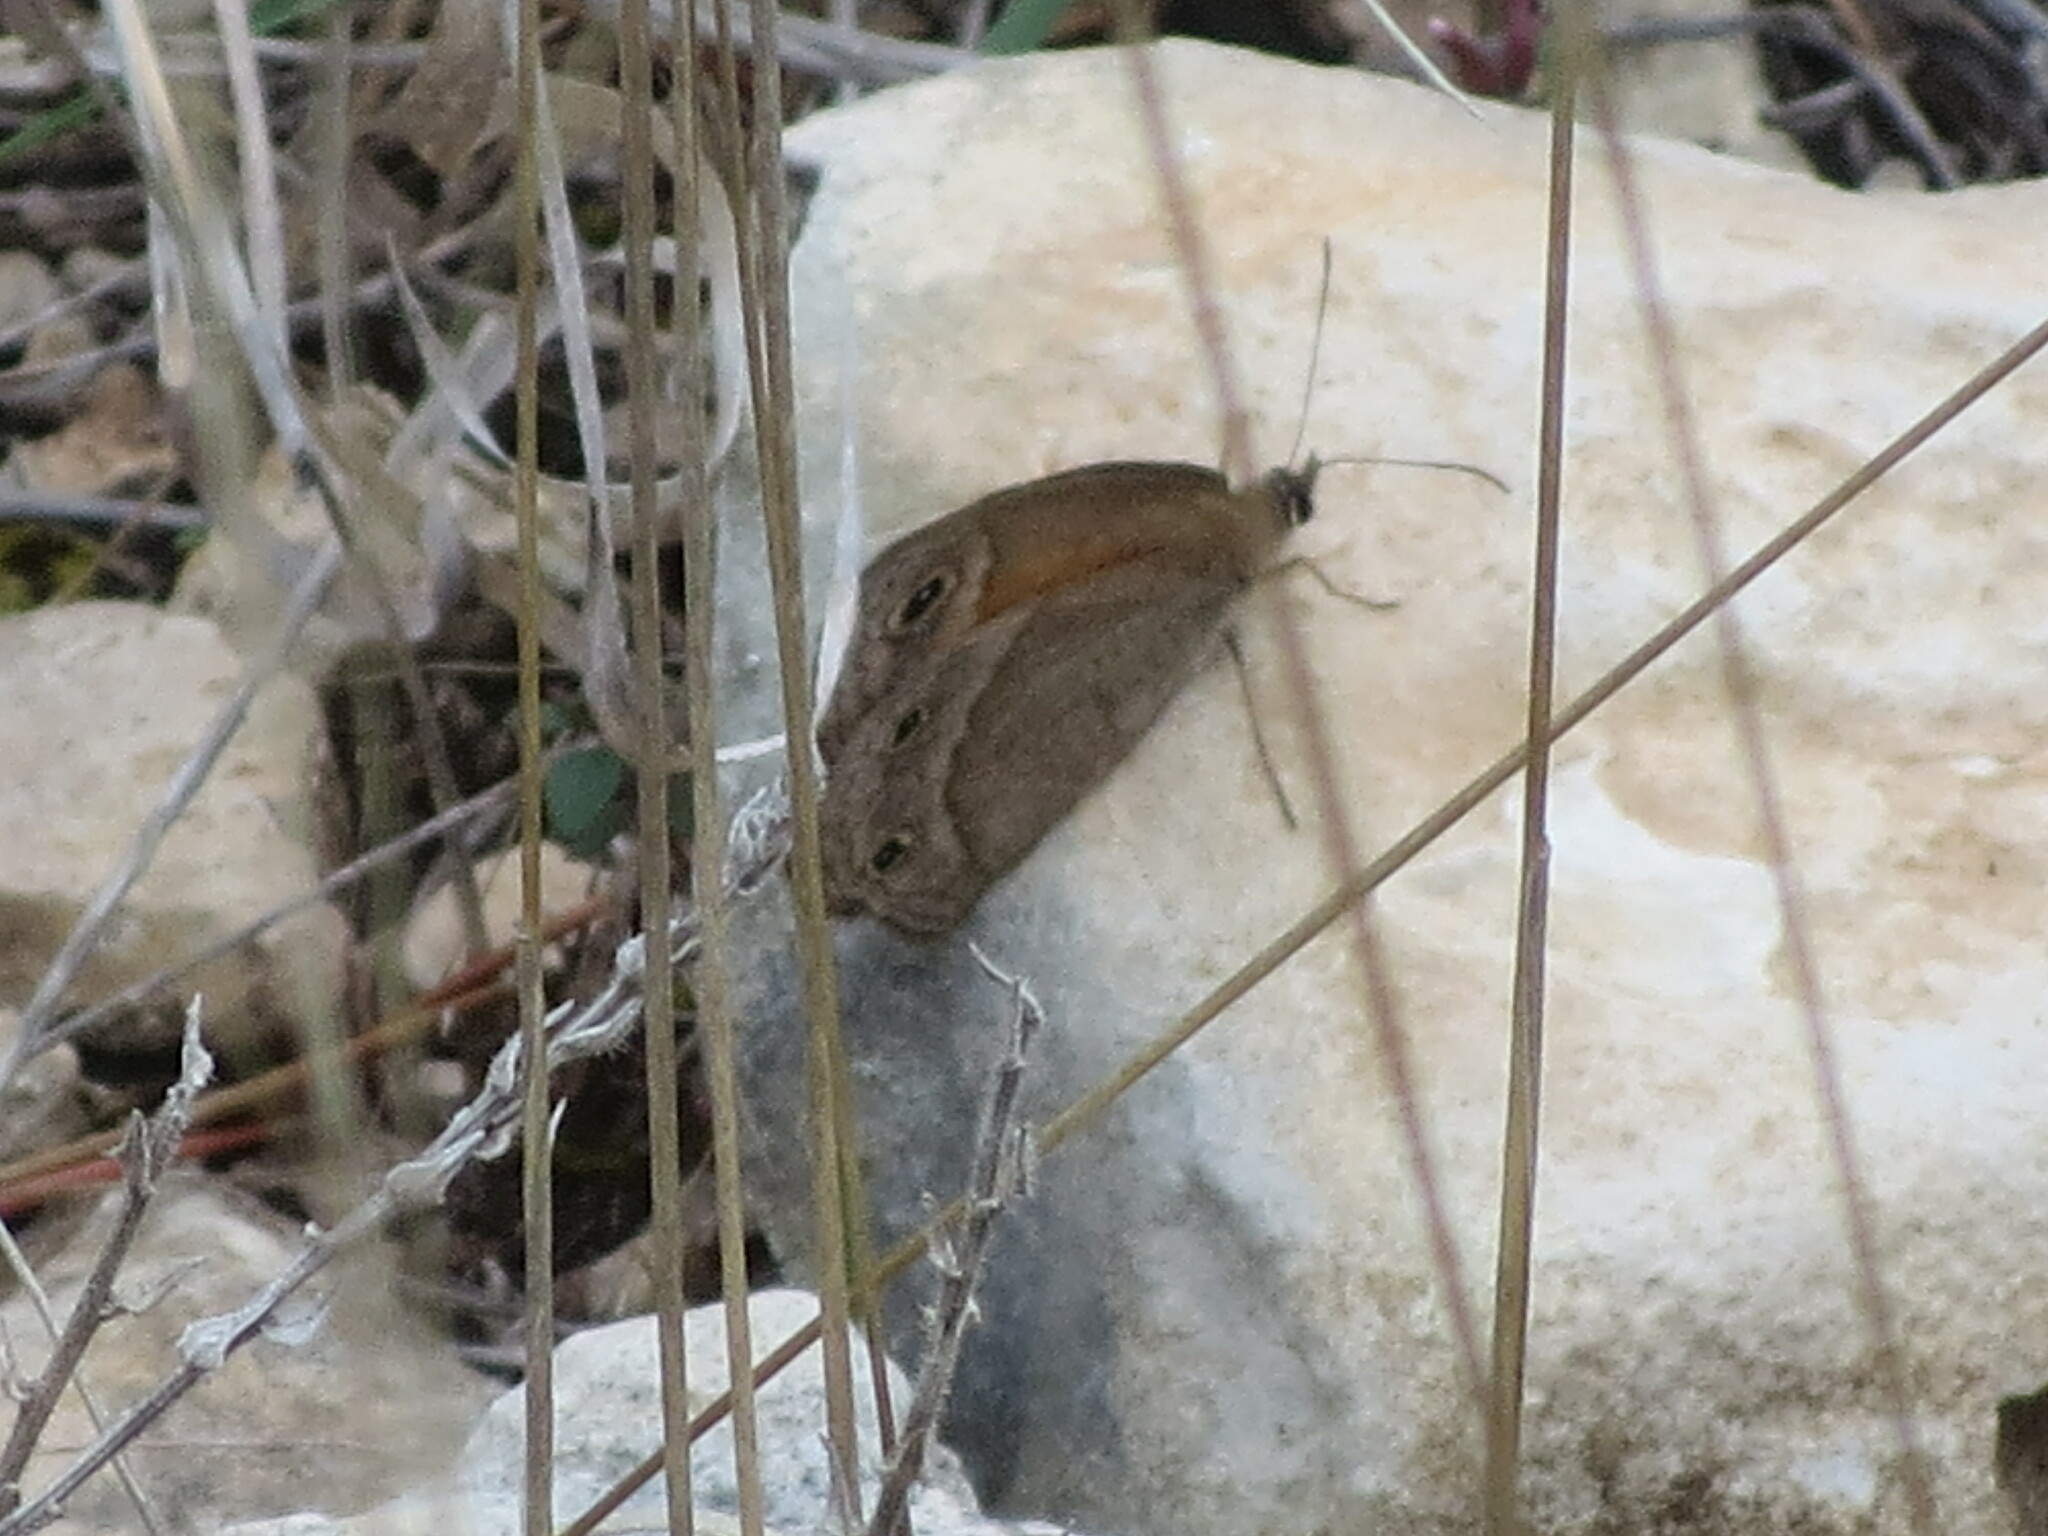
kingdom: Animalia
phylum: Arthropoda
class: Insecta
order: Lepidoptera
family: Nymphalidae
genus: Euptychia
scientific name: Euptychia Cissia rubricata
